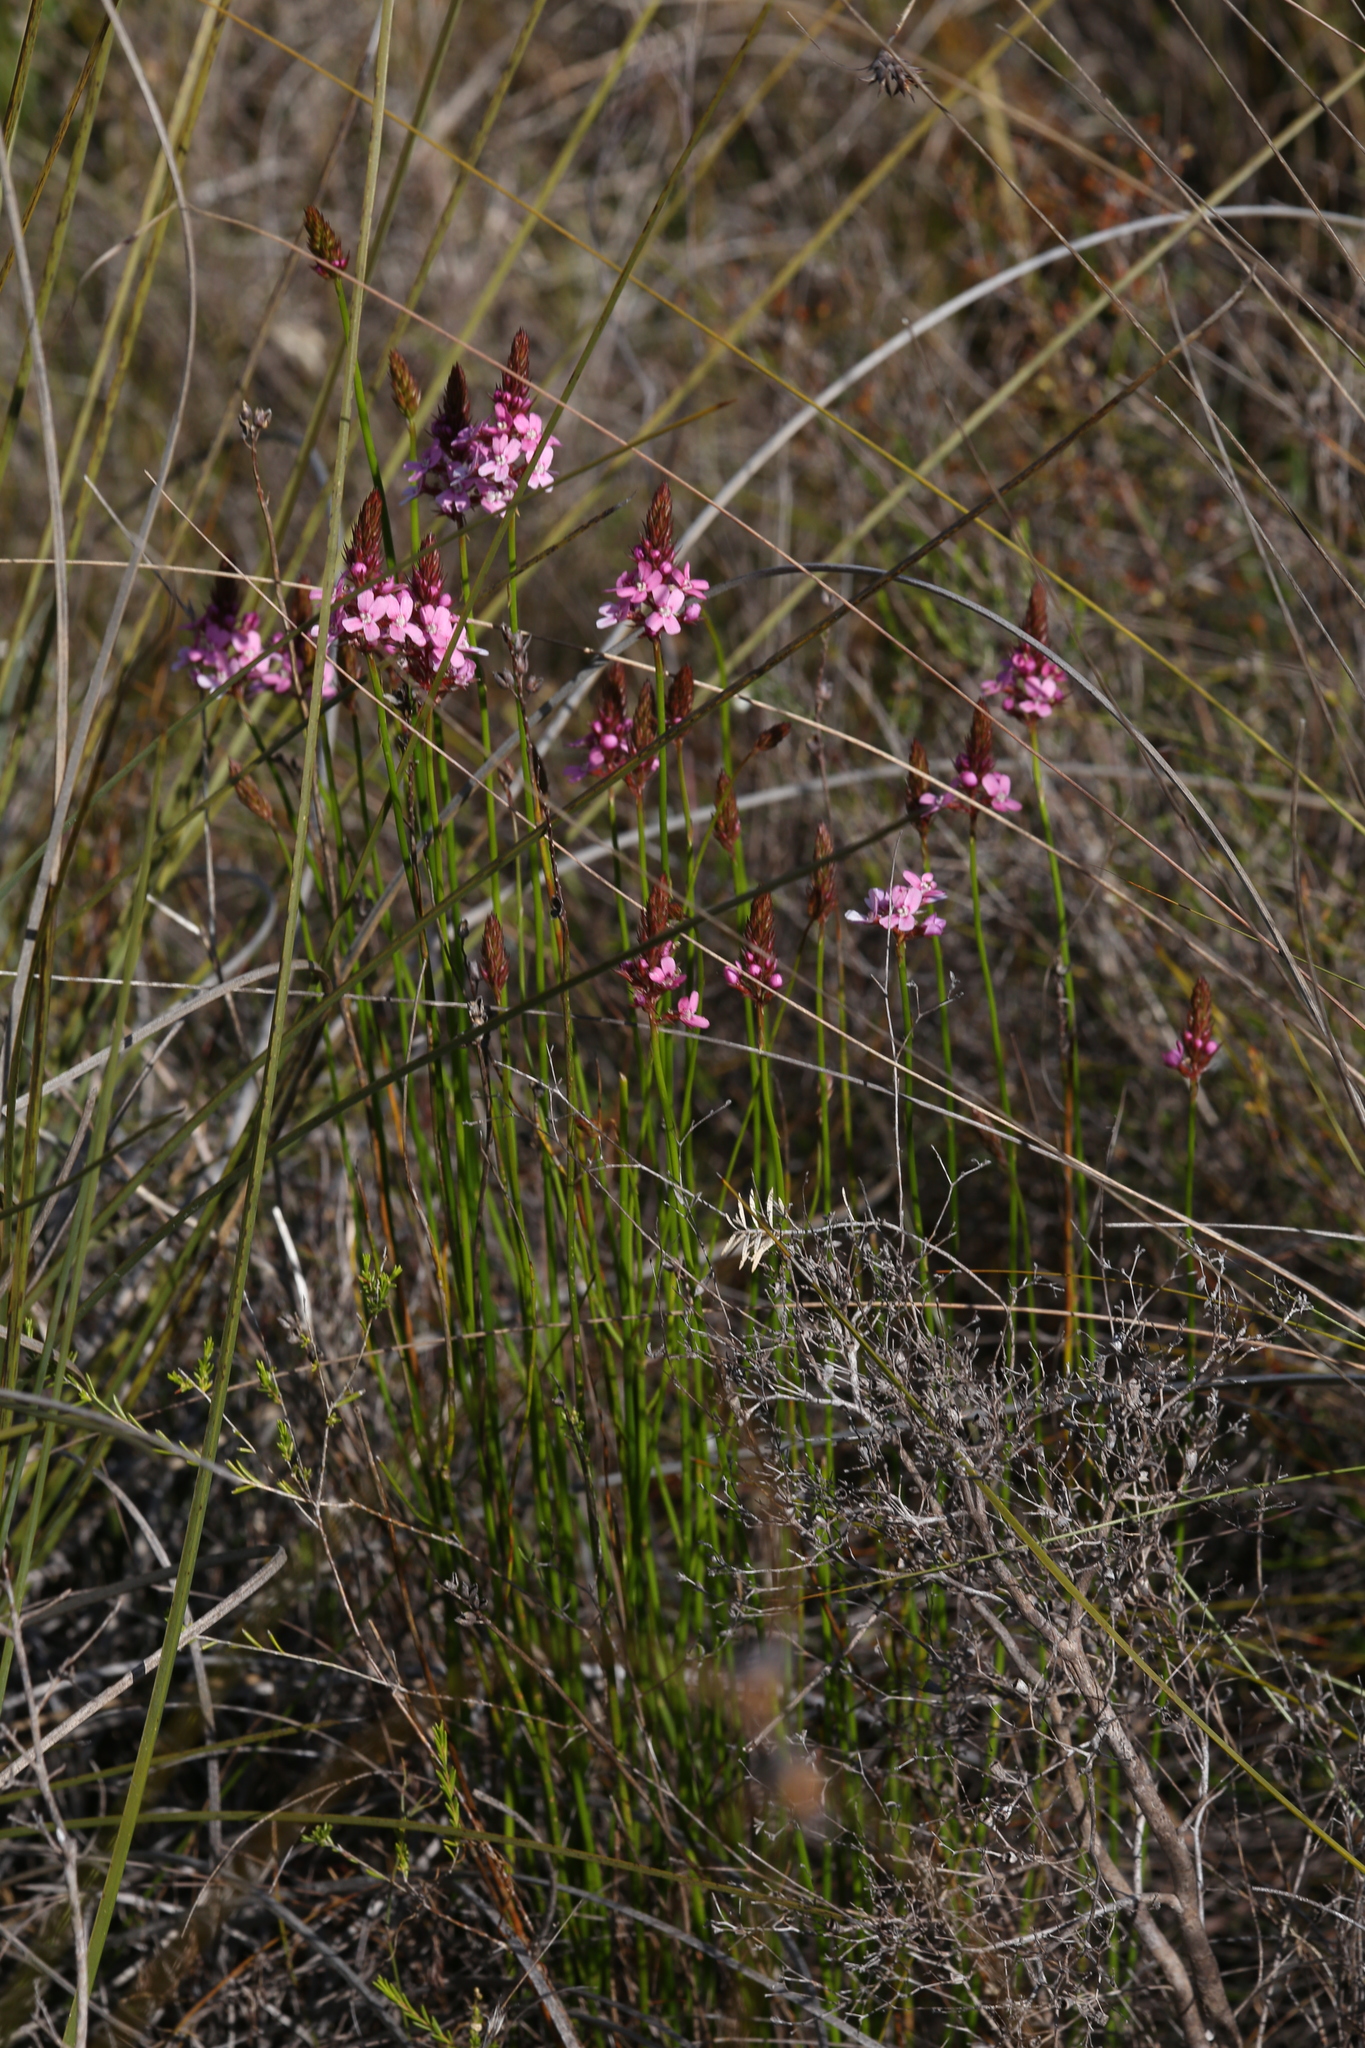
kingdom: Plantae
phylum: Tracheophyta
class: Magnoliopsida
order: Asterales
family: Stylidiaceae
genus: Stylidium
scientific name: Stylidium paludicola
